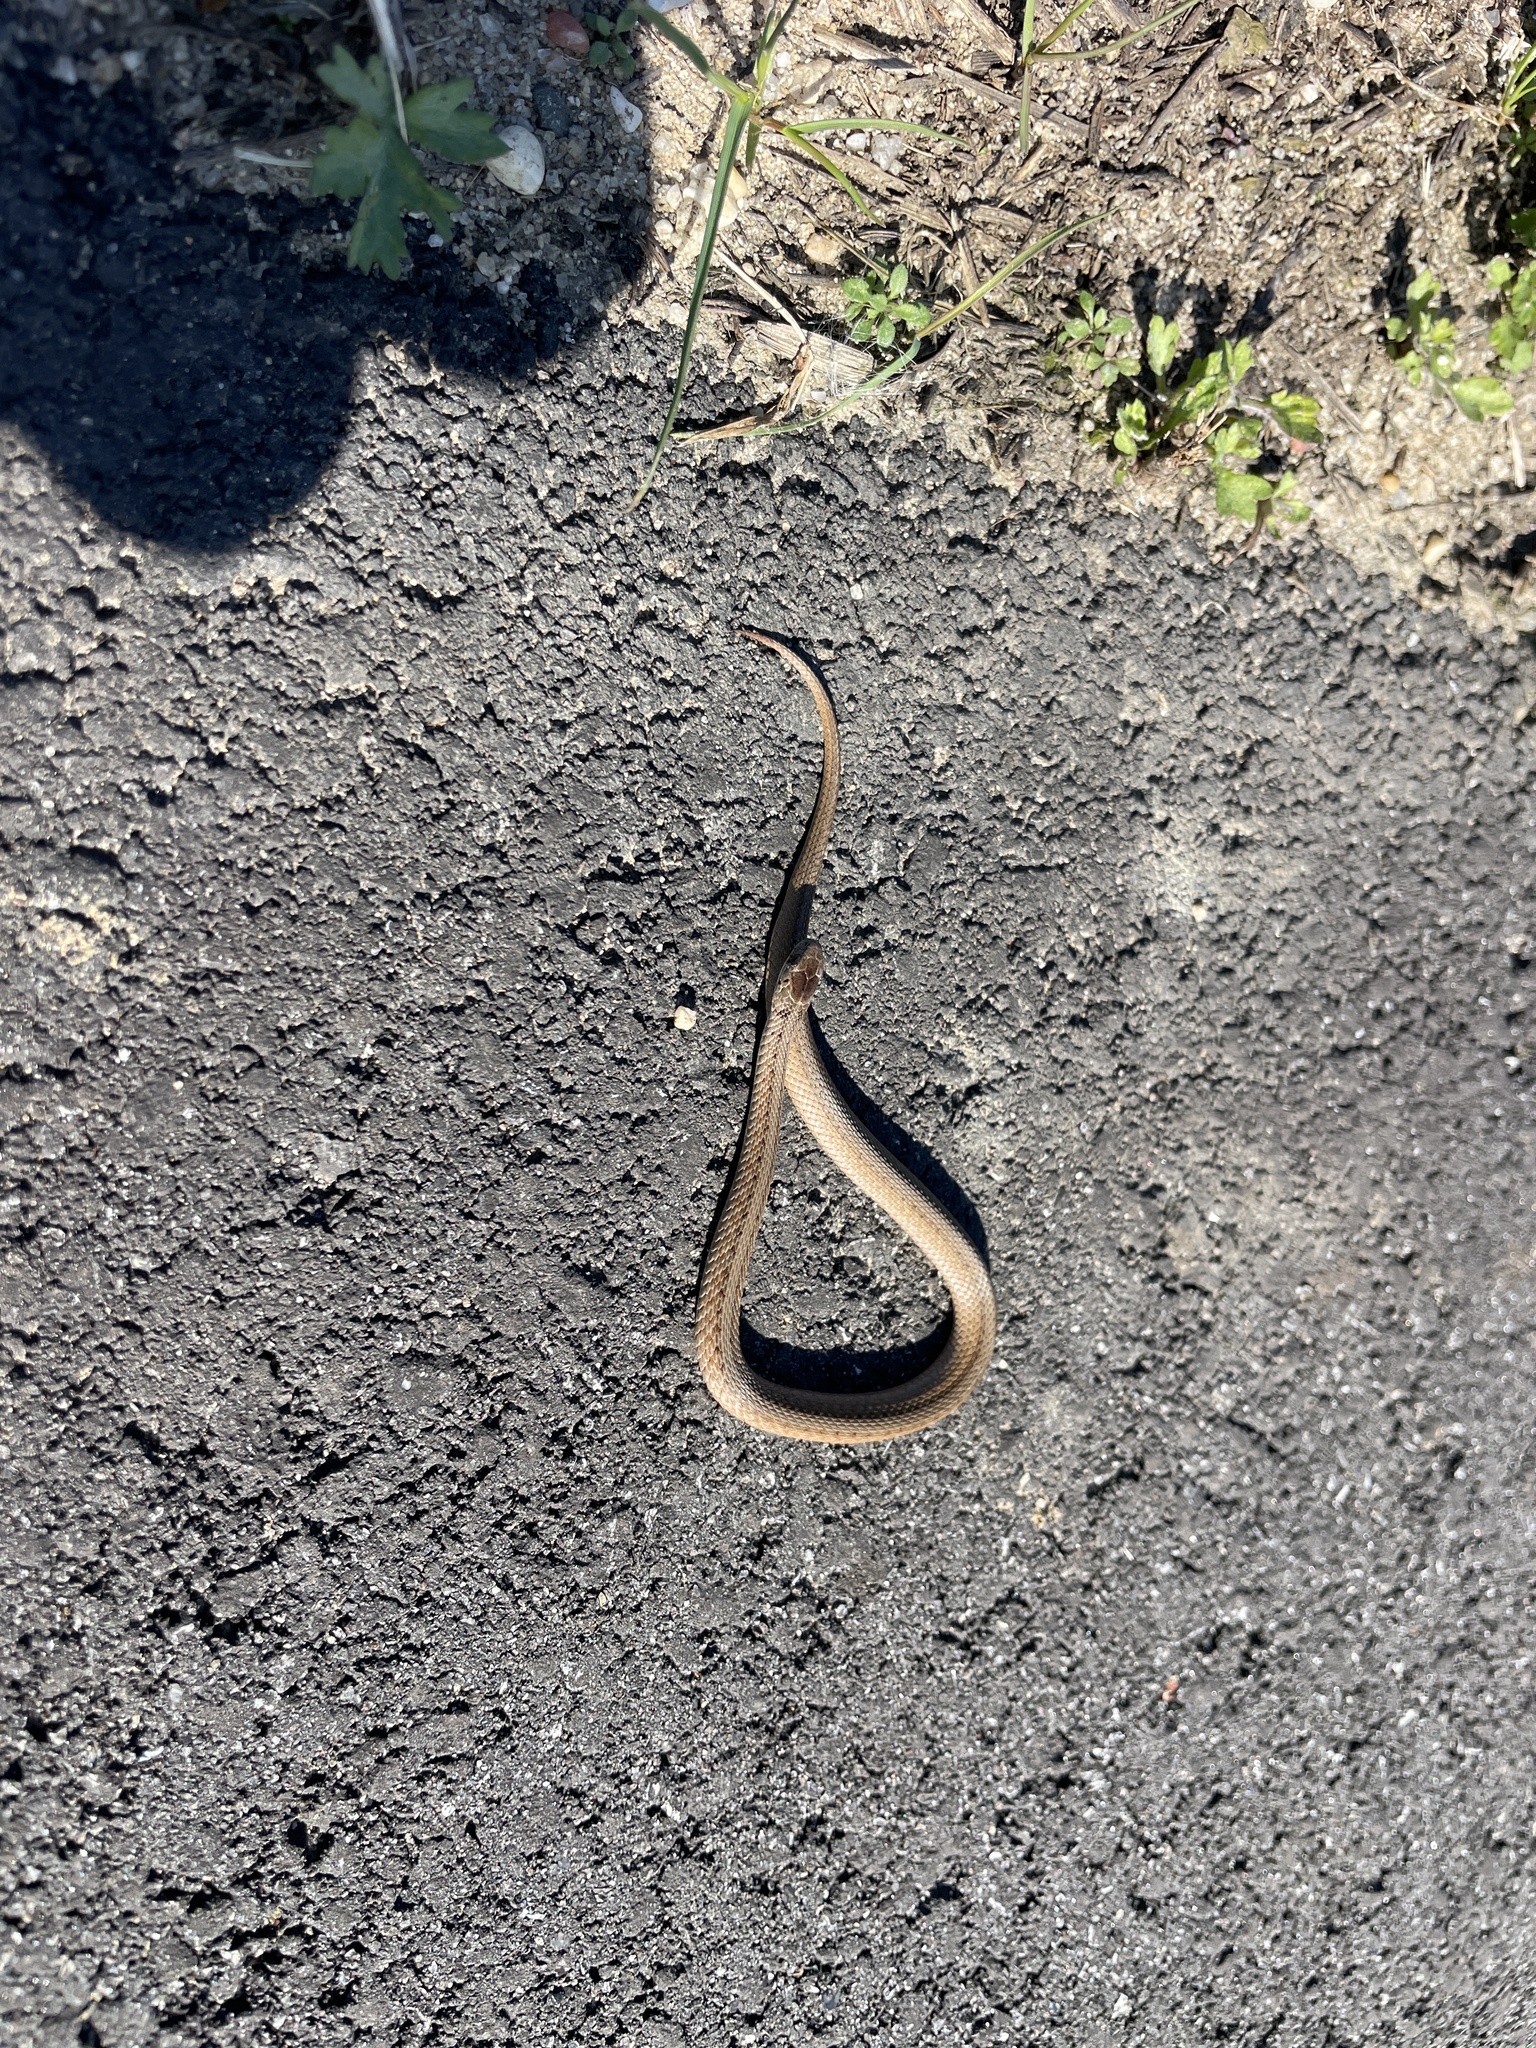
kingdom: Animalia
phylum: Chordata
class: Squamata
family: Colubridae
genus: Storeria
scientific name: Storeria dekayi
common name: (dekay’s) brown snake
